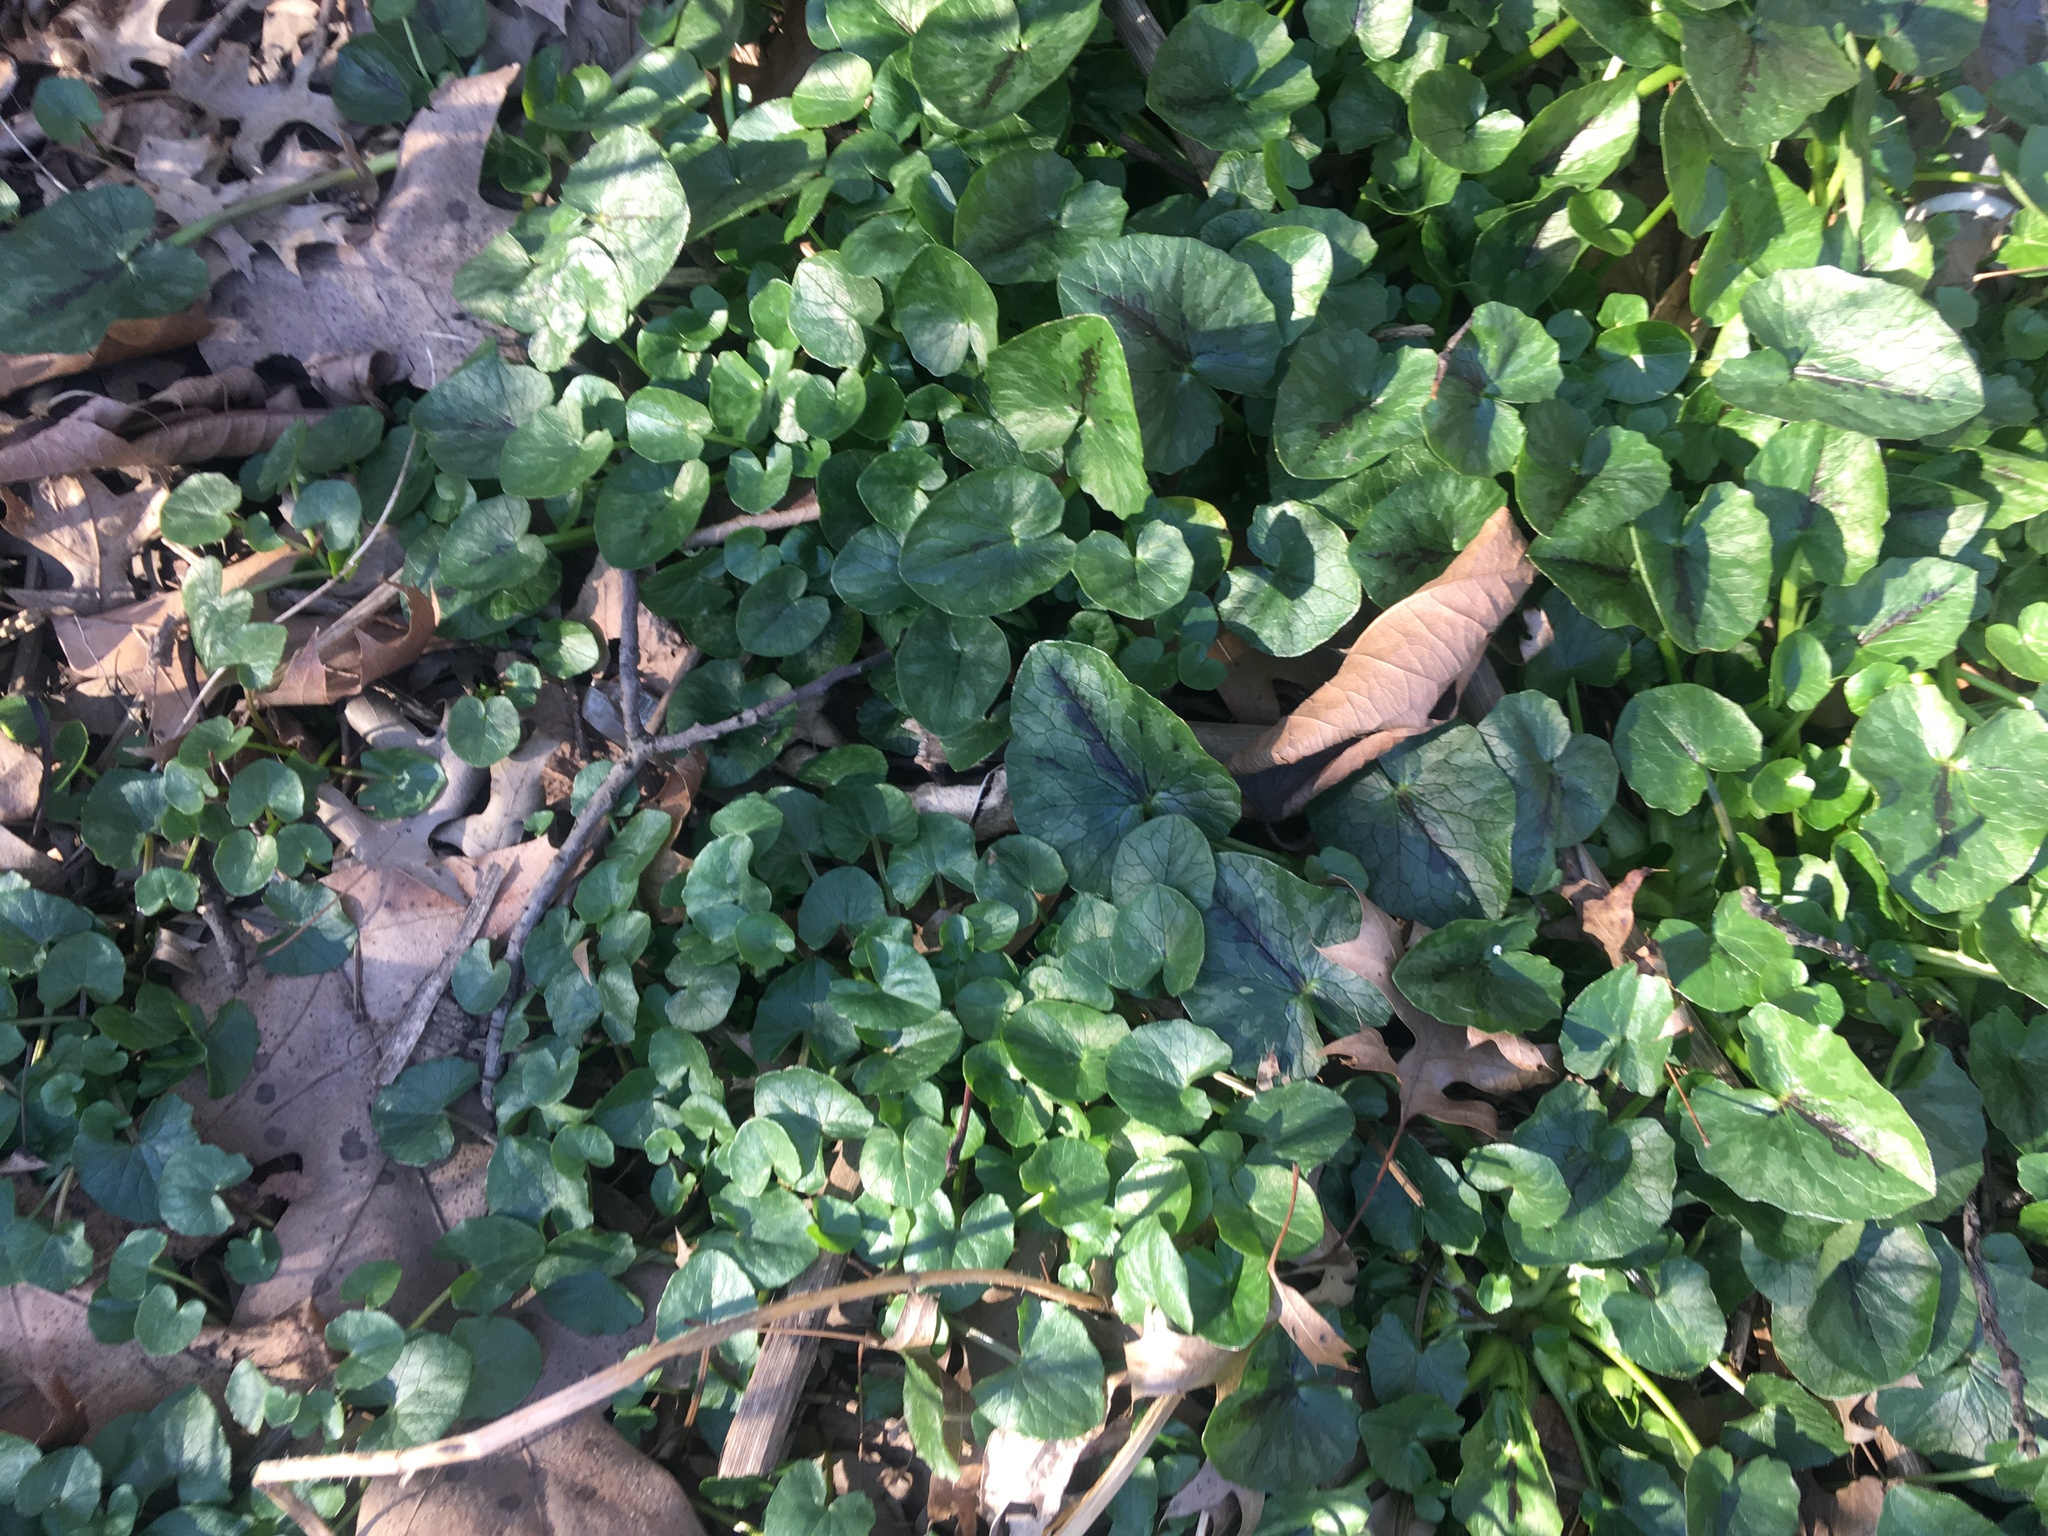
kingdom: Plantae
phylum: Tracheophyta
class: Magnoliopsida
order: Ranunculales
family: Ranunculaceae
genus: Ficaria
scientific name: Ficaria verna
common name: Lesser celandine
